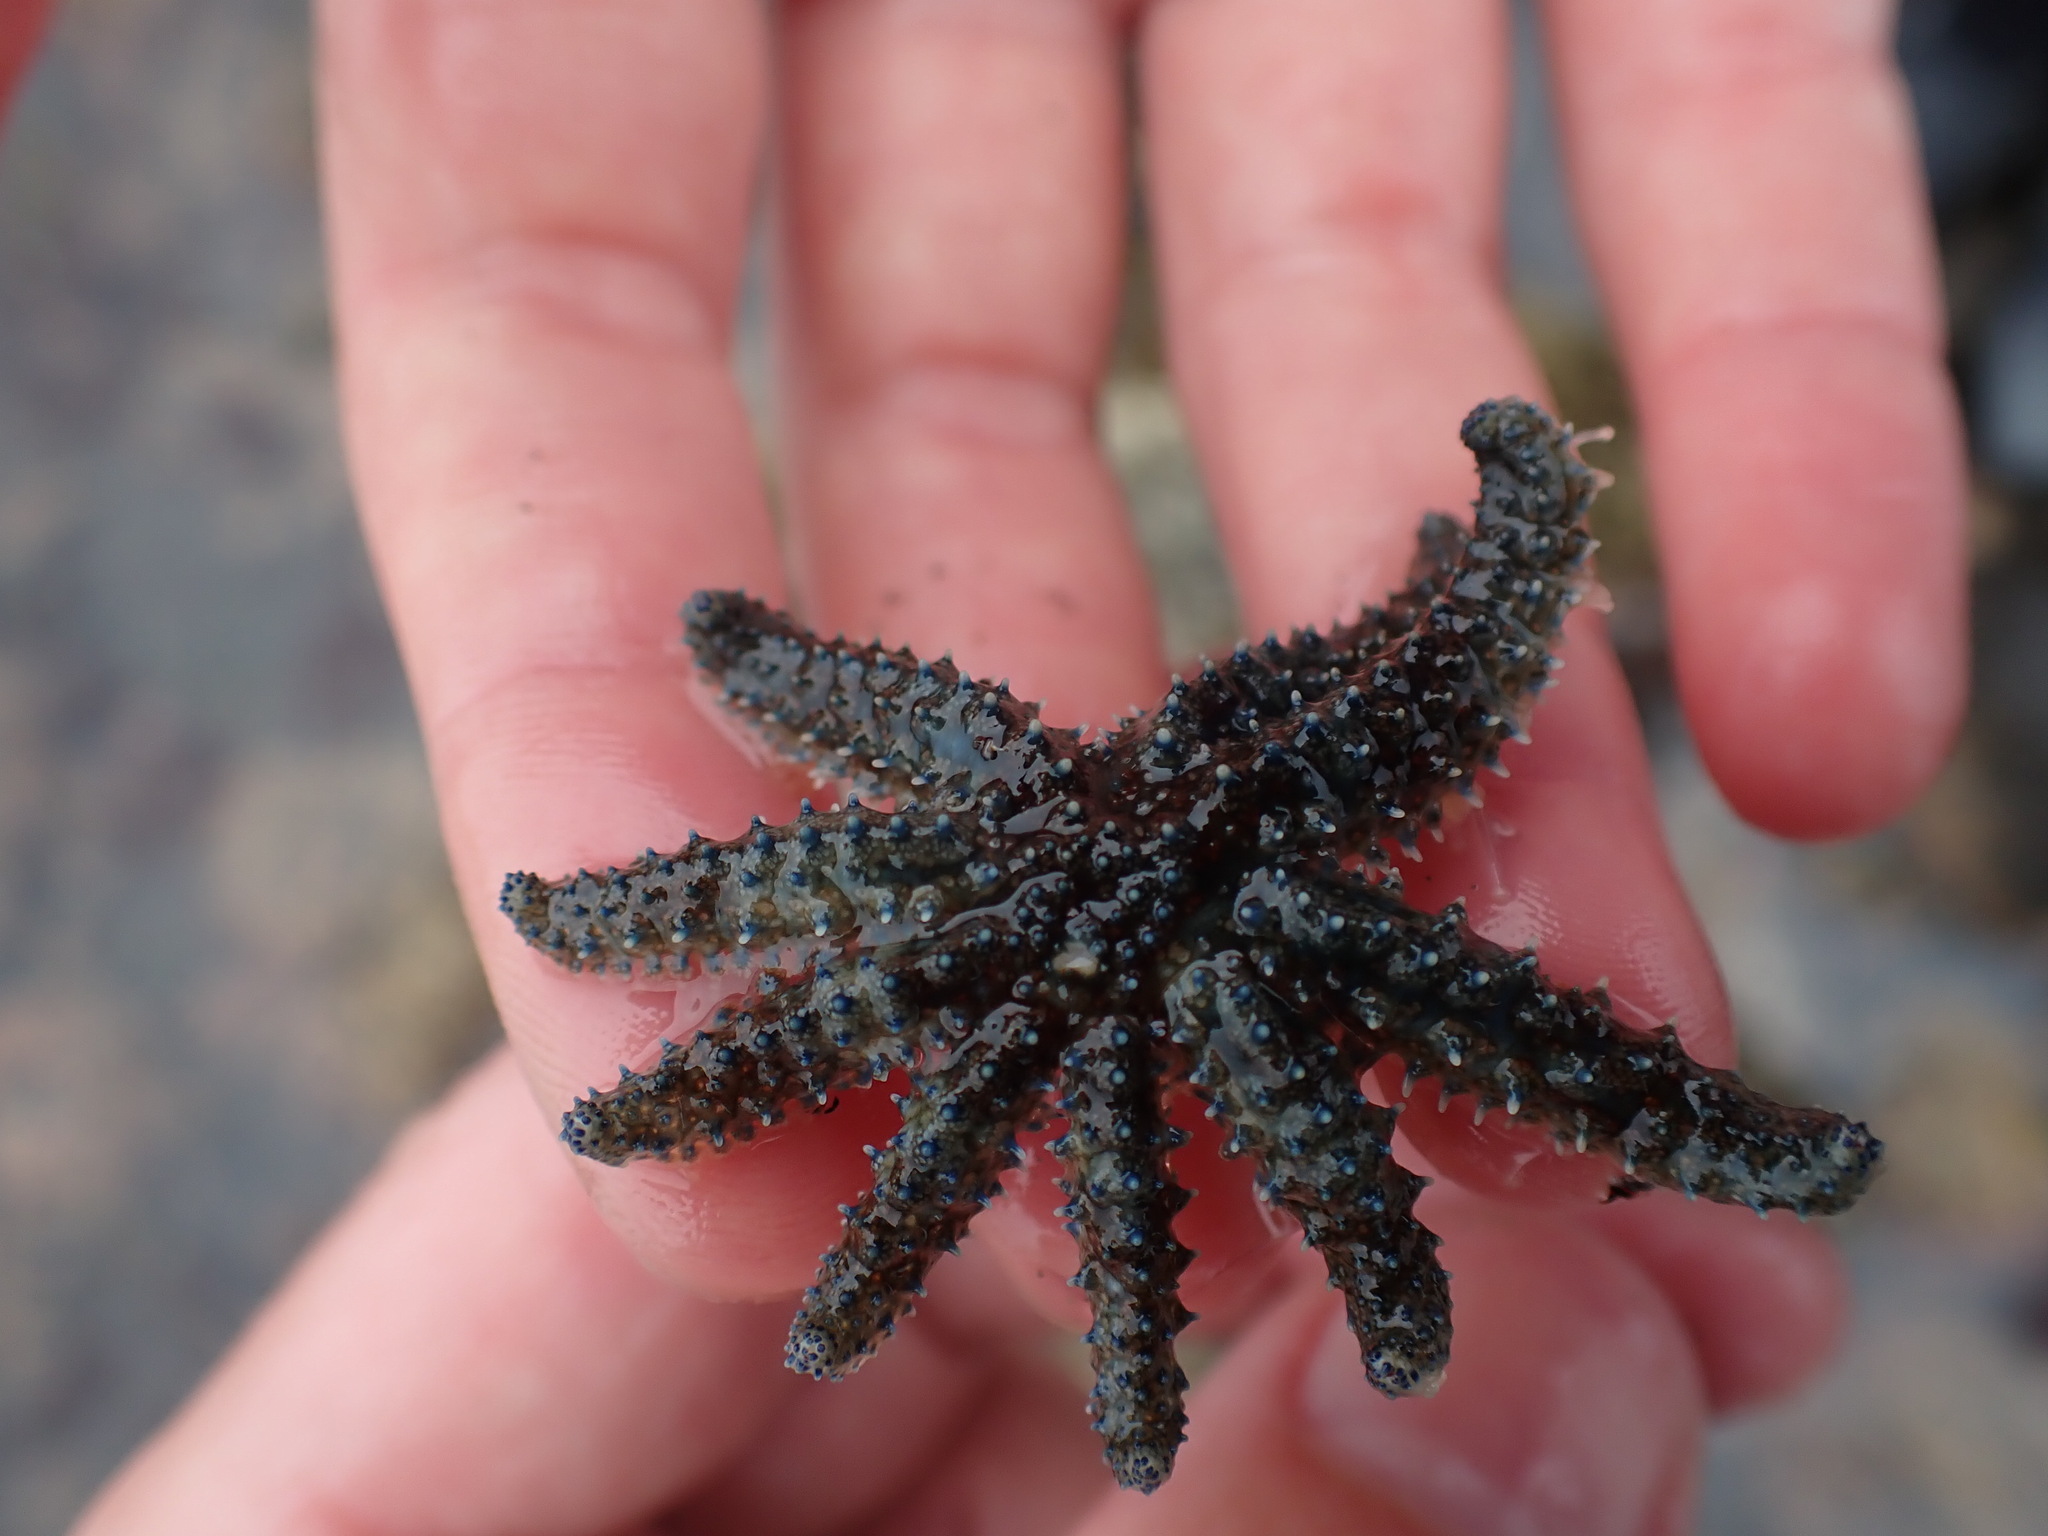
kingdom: Animalia
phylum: Echinodermata
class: Asteroidea
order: Forcipulatida
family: Asteriidae
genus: Coscinasterias
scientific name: Coscinasterias muricata
